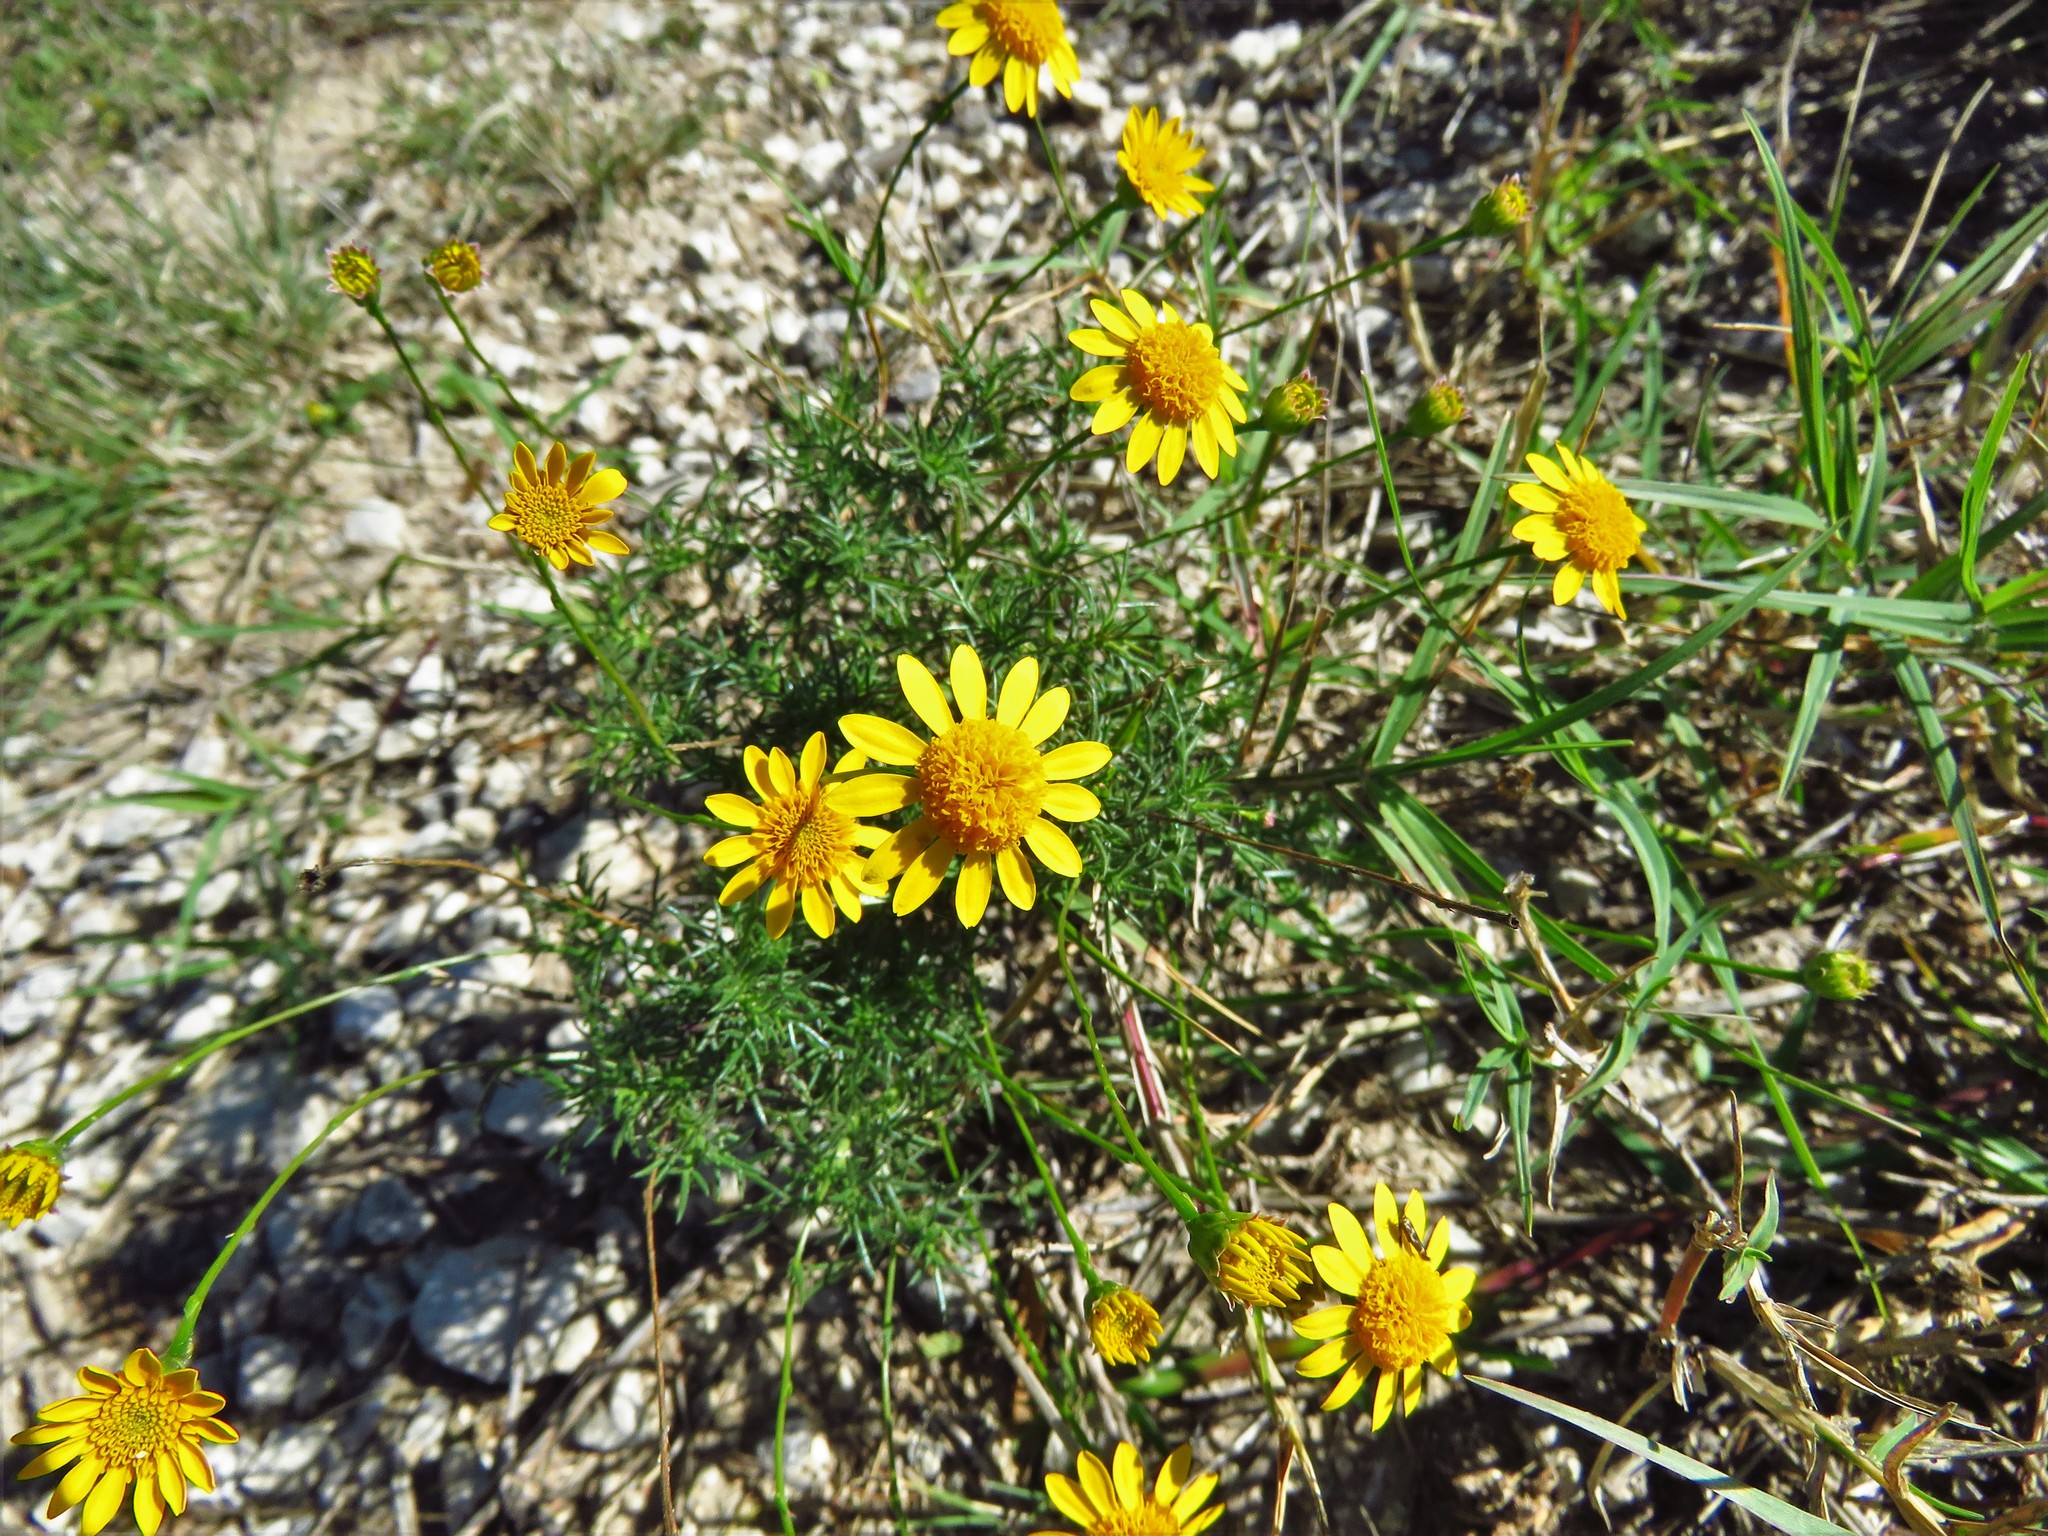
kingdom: Plantae
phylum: Tracheophyta
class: Magnoliopsida
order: Asterales
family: Asteraceae
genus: Thymophylla
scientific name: Thymophylla tenuiloba
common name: Dahlberg's daisy
